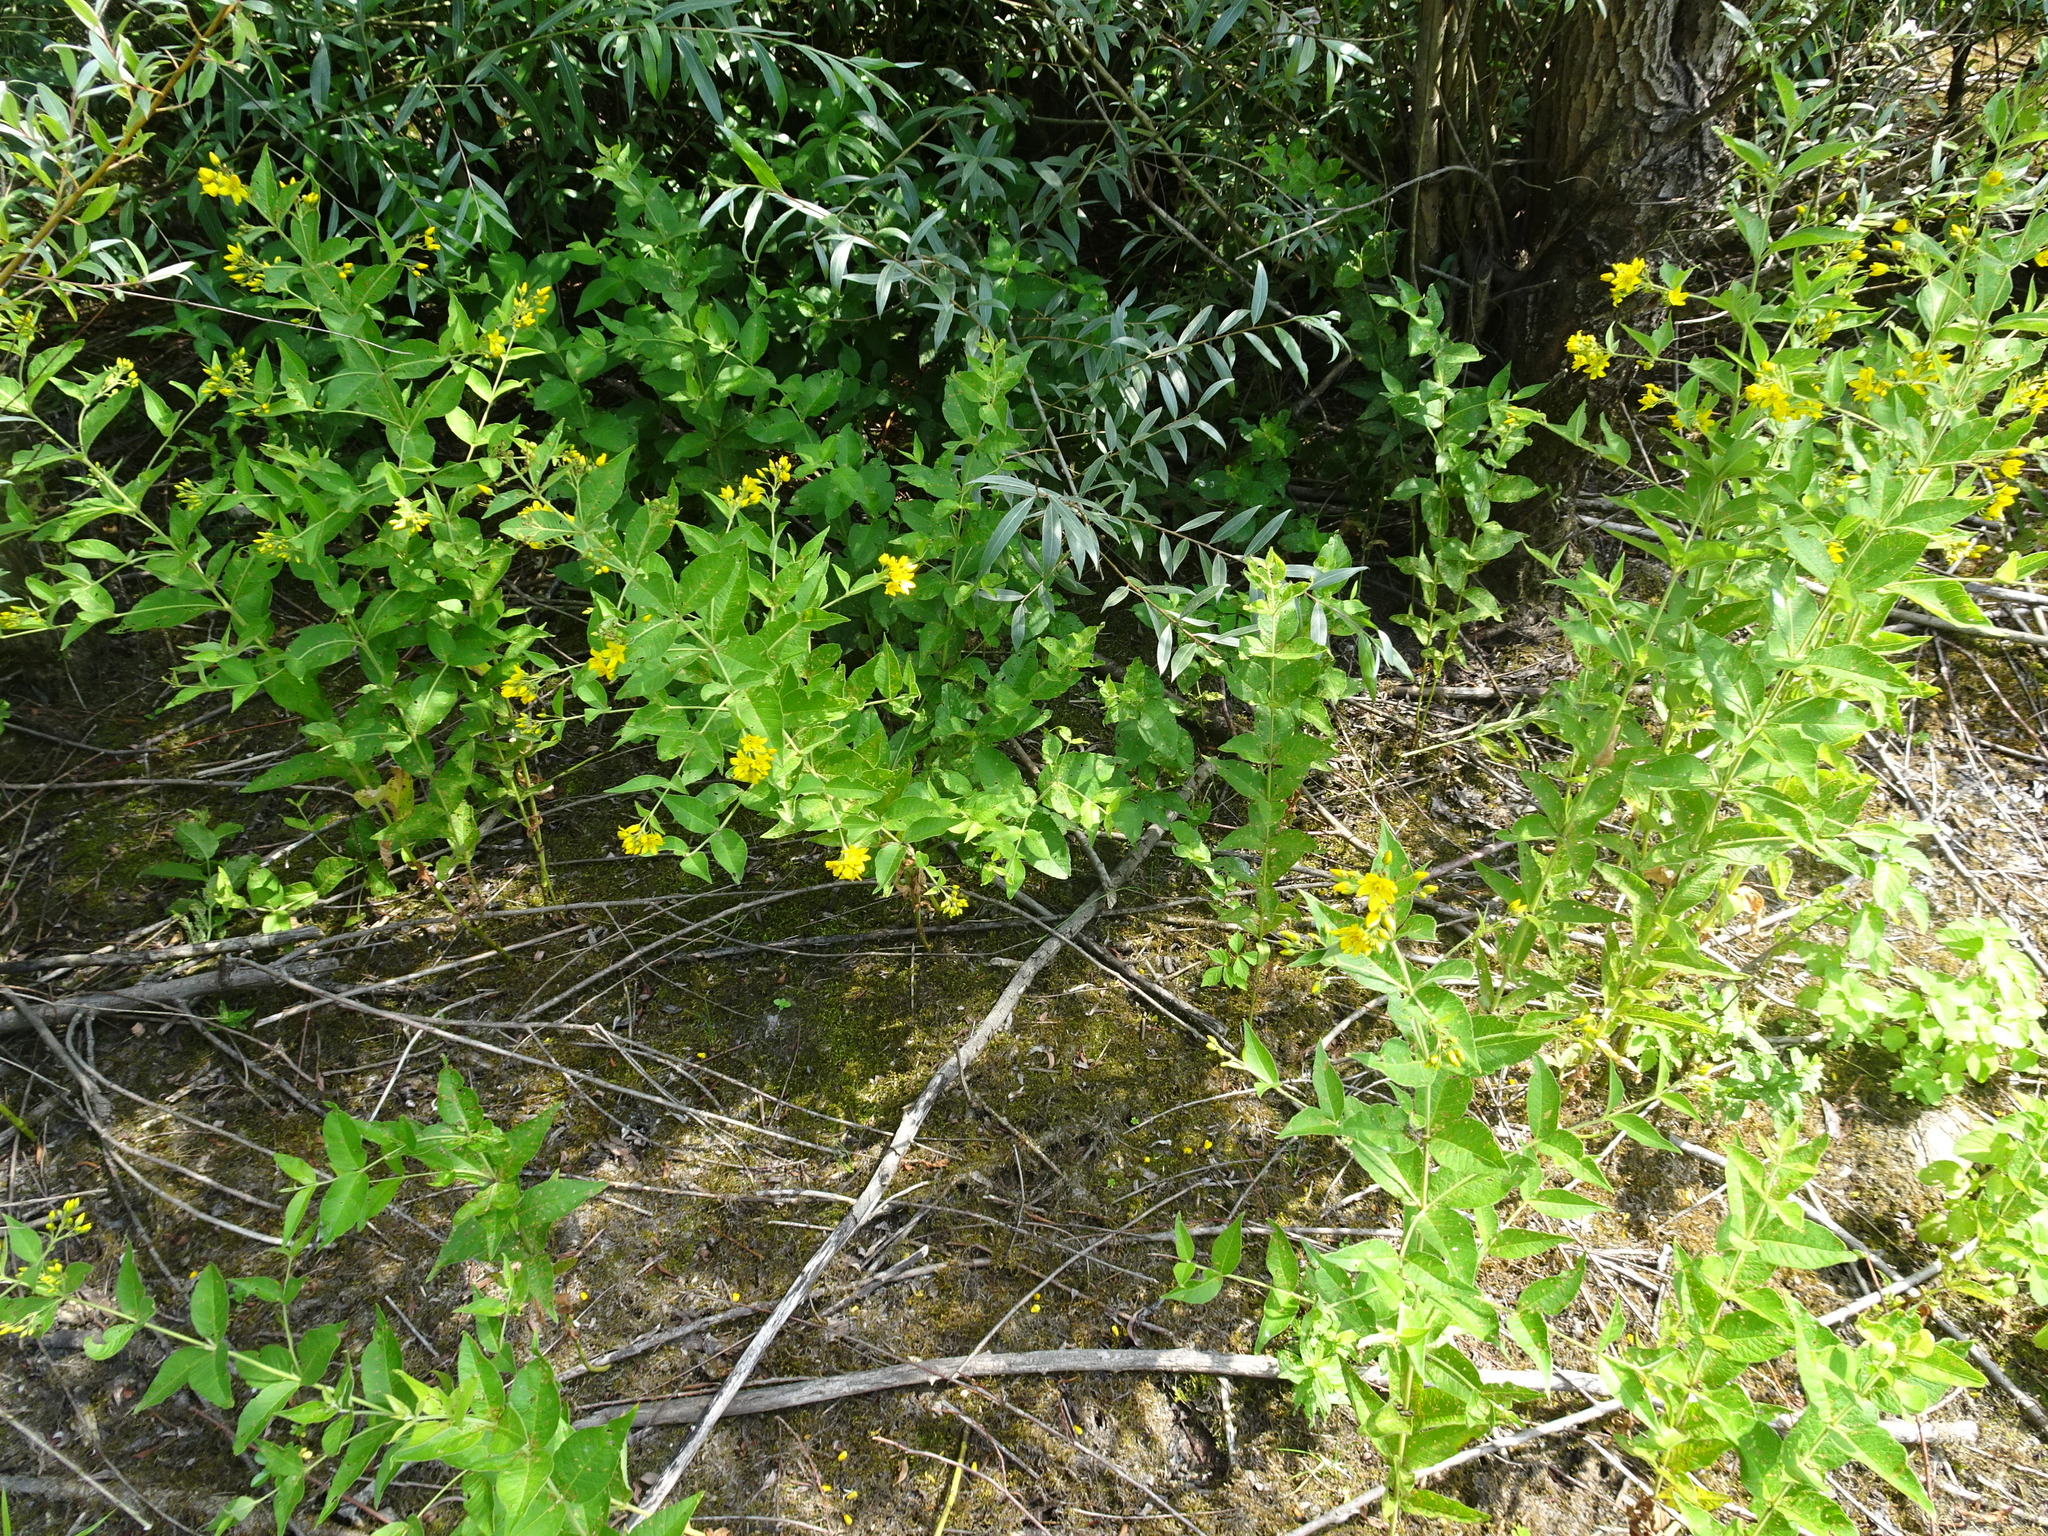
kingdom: Plantae
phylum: Tracheophyta
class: Magnoliopsida
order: Ericales
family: Primulaceae
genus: Lysimachia
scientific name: Lysimachia vulgaris
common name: Yellow loosestrife
